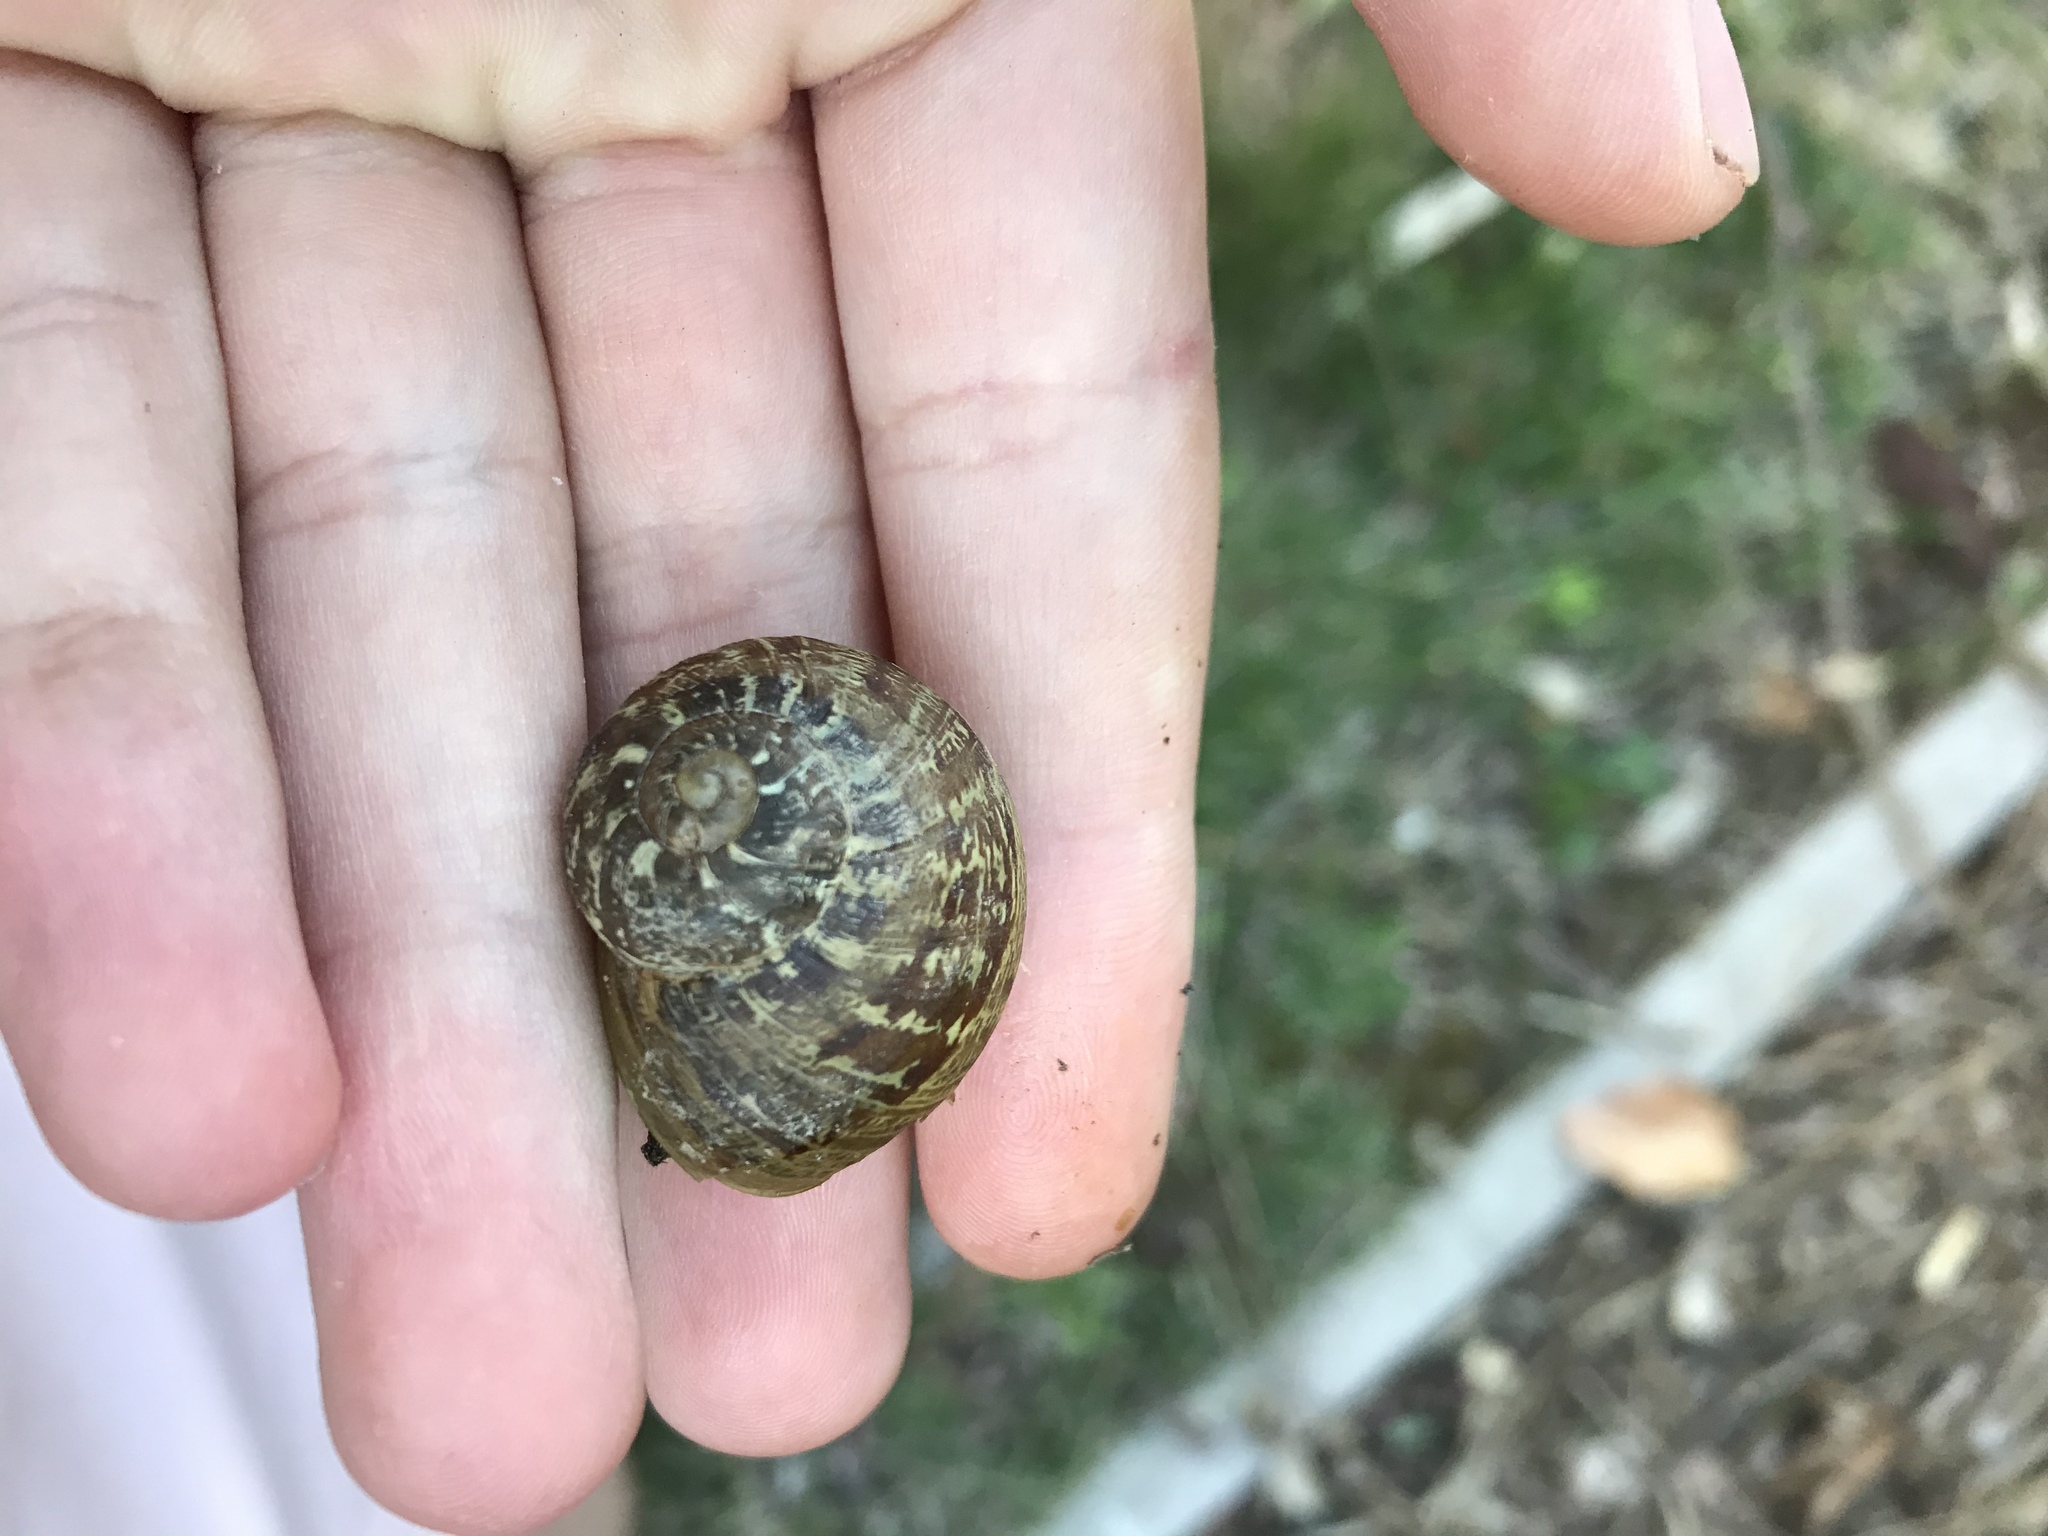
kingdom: Animalia
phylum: Mollusca
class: Gastropoda
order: Stylommatophora
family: Helicidae
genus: Cornu
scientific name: Cornu aspersum
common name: Brown garden snail
